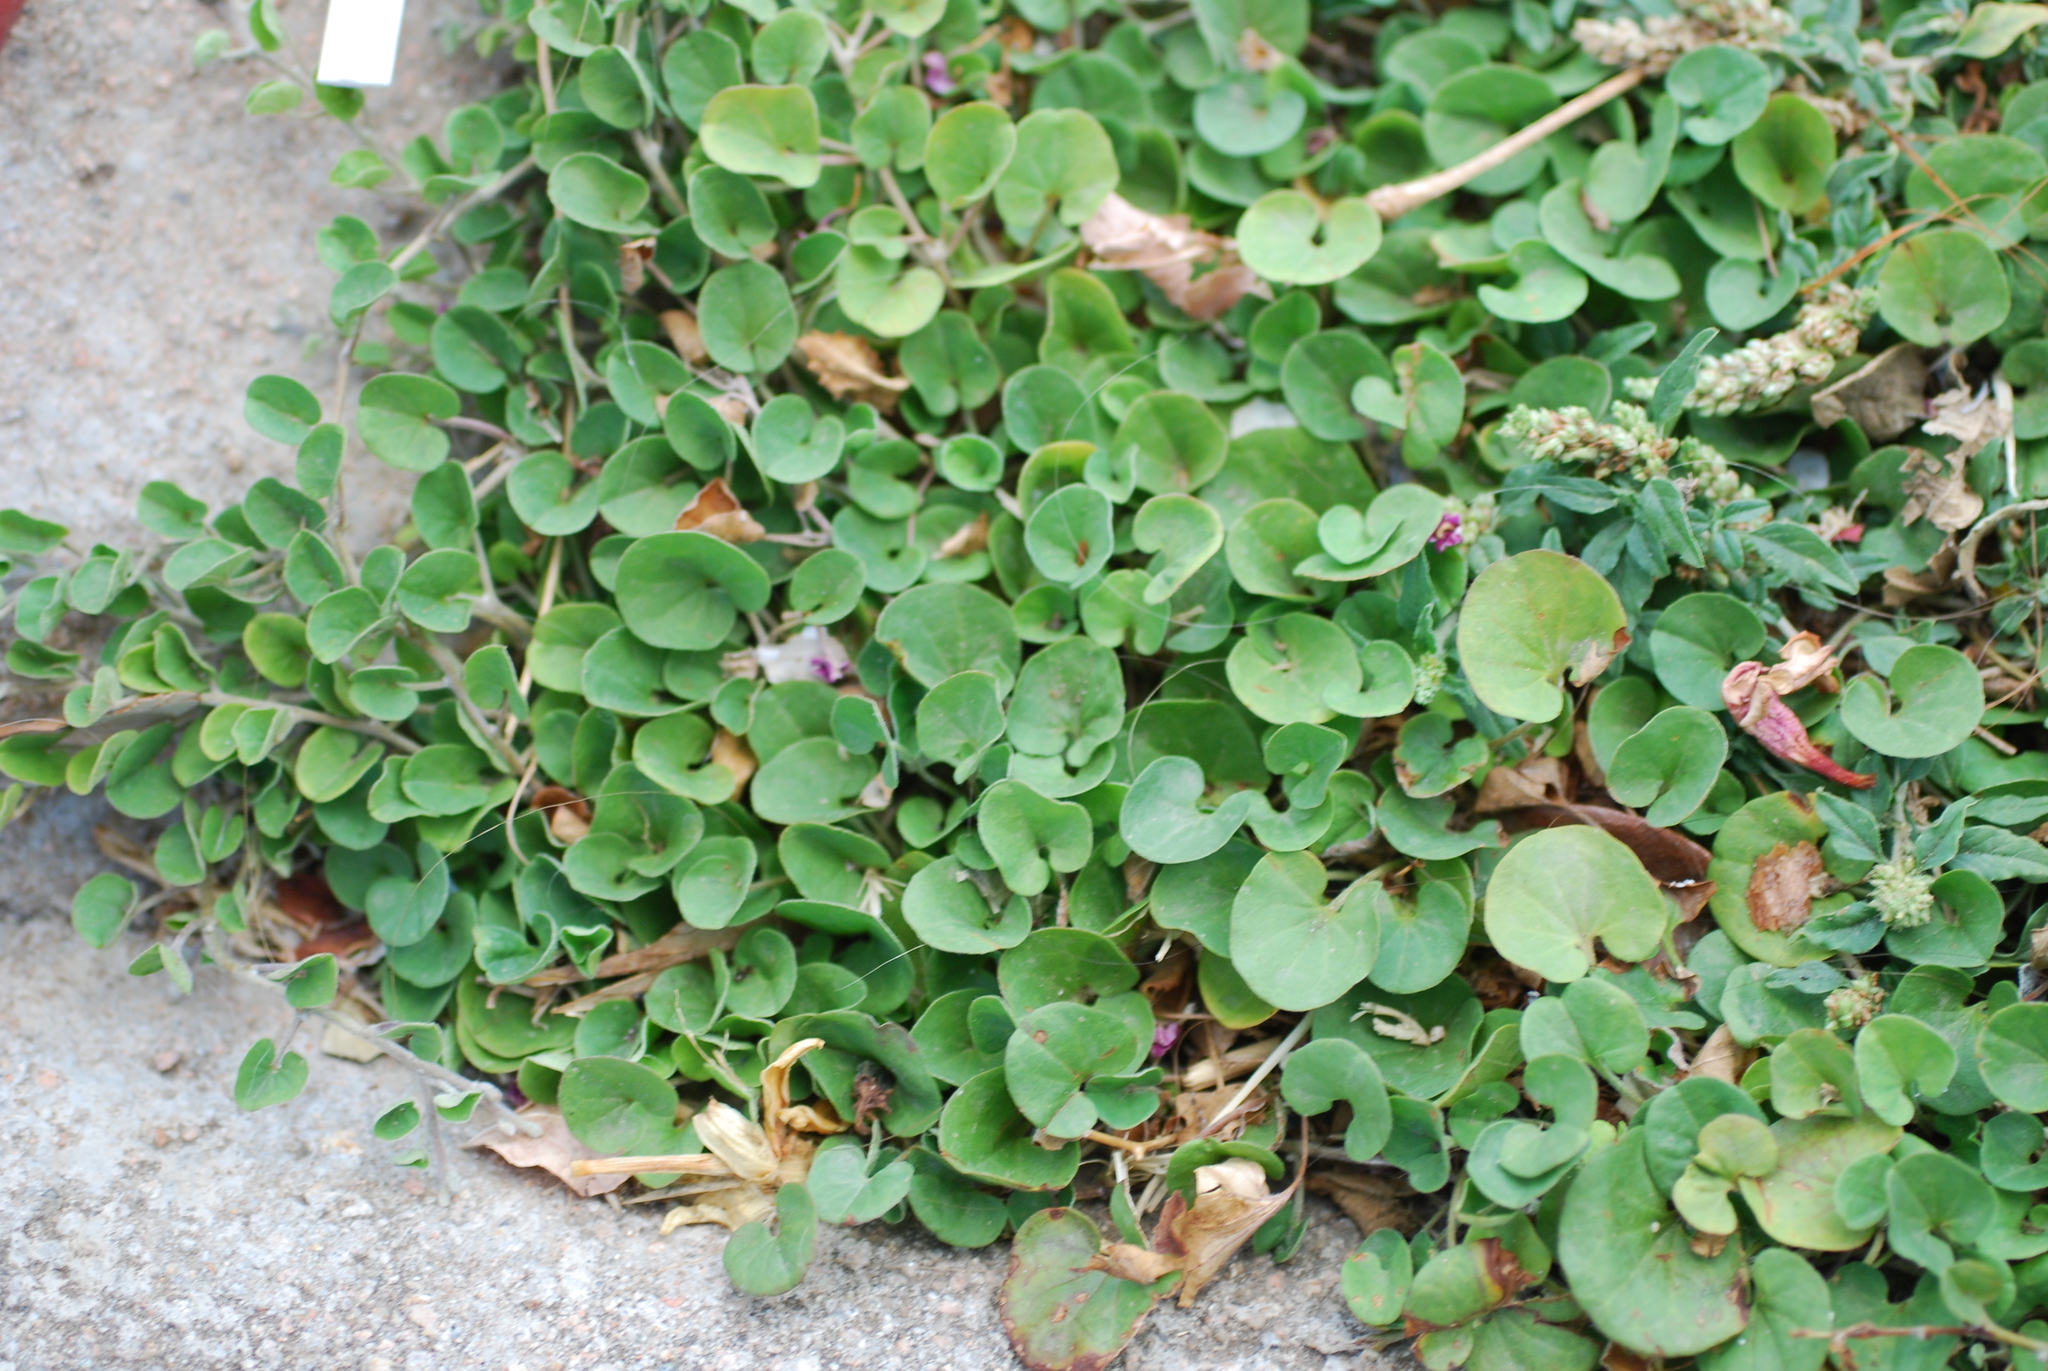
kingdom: Plantae
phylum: Tracheophyta
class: Magnoliopsida
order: Solanales
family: Convolvulaceae
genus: Dichondra
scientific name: Dichondra repens
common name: Kidneyweed
